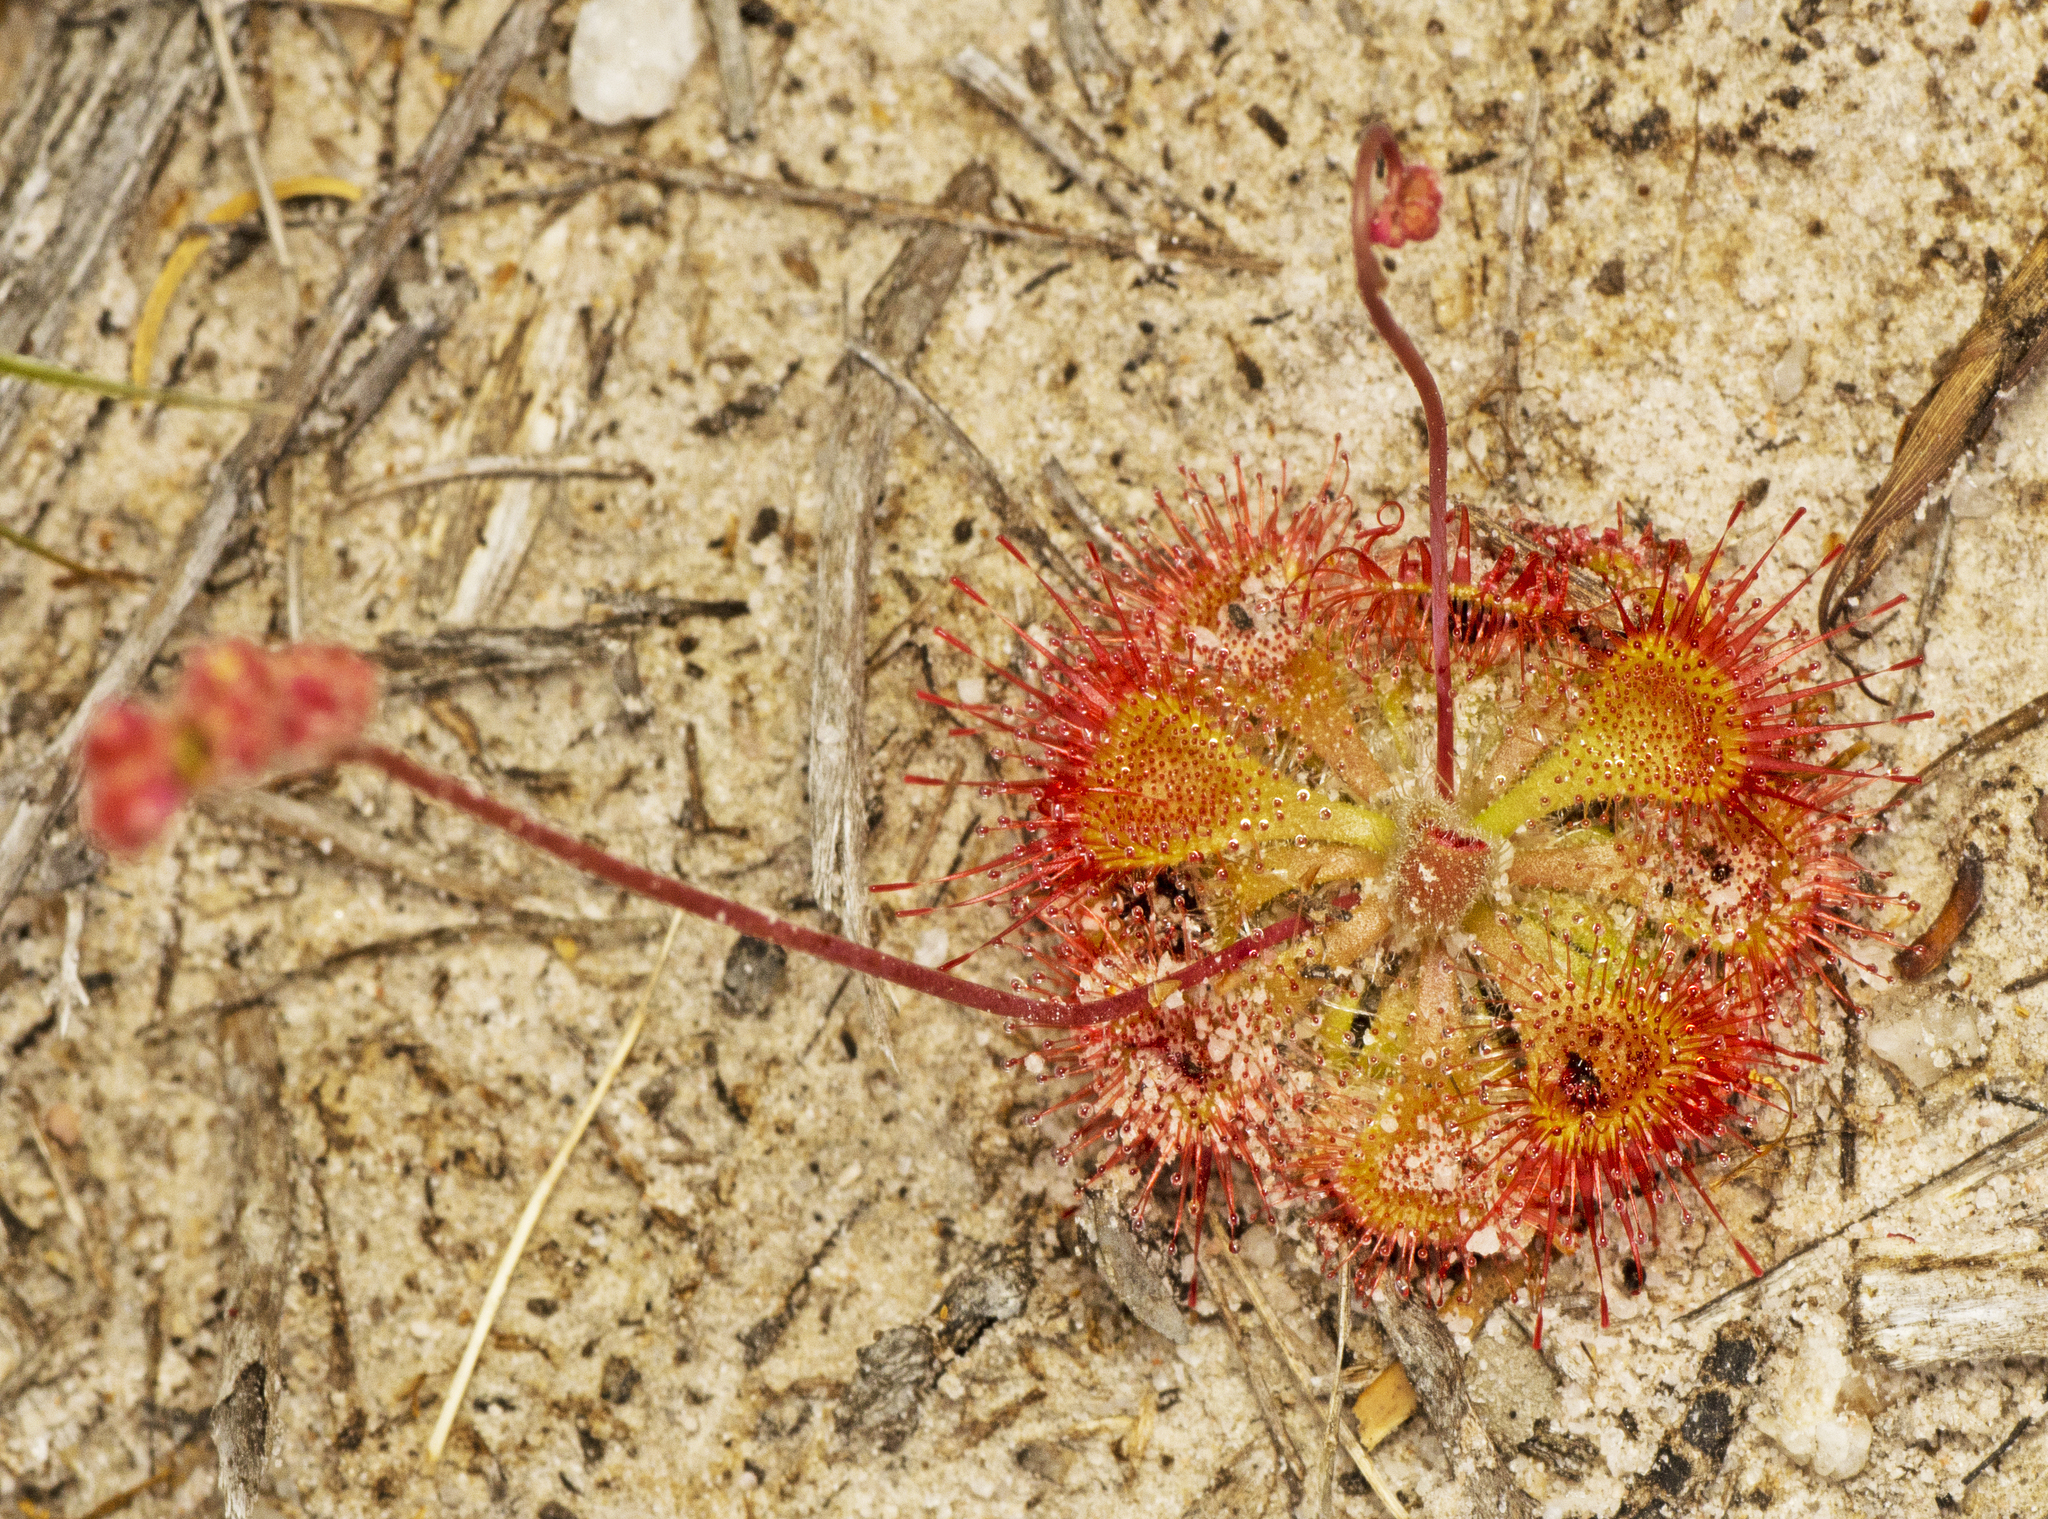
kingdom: Plantae
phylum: Tracheophyta
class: Magnoliopsida
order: Caryophyllales
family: Droseraceae
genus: Drosera
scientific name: Drosera spatulata
